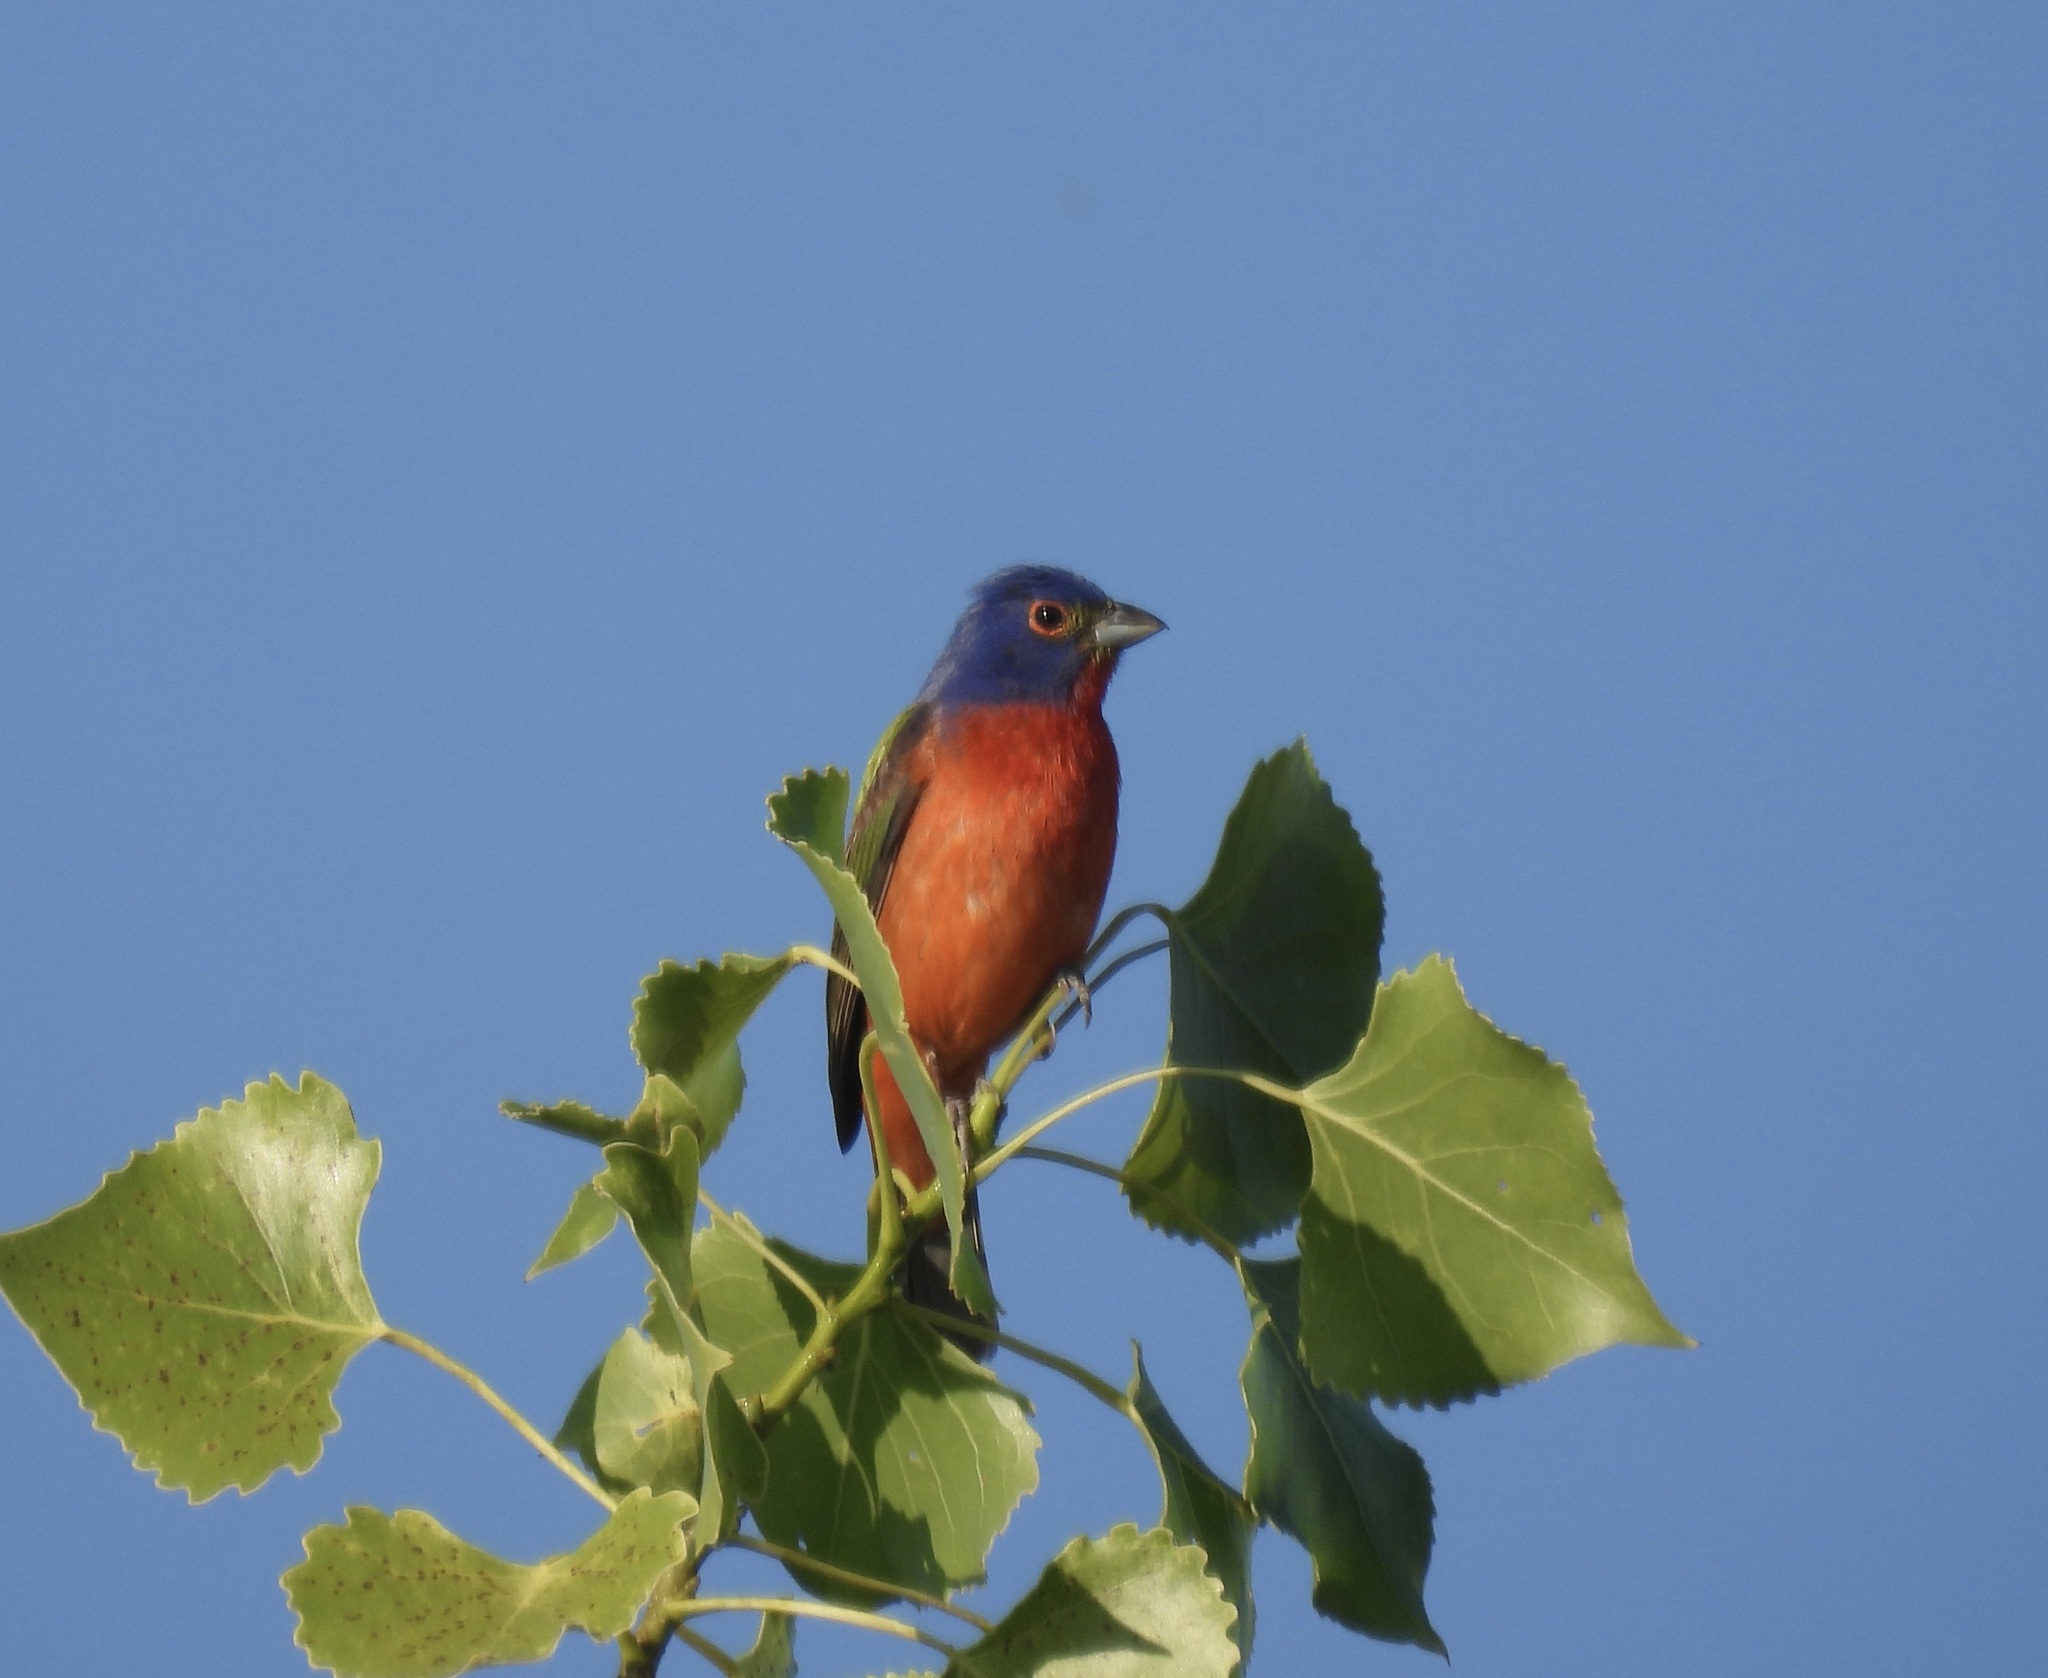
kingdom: Animalia
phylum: Chordata
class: Aves
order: Passeriformes
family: Cardinalidae
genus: Passerina
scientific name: Passerina ciris
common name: Painted bunting
